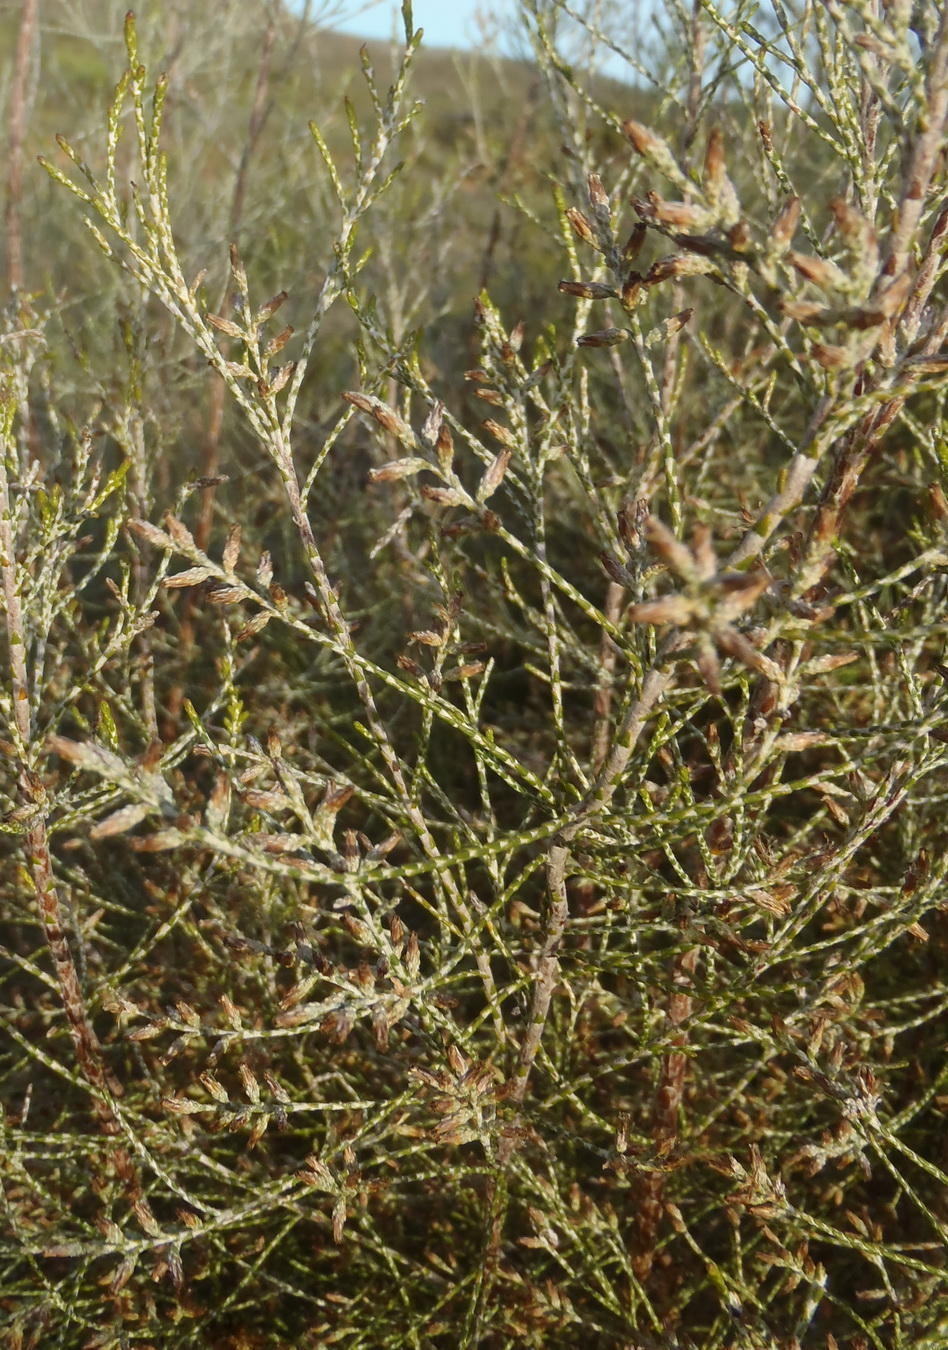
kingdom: Plantae
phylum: Tracheophyta
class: Magnoliopsida
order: Asterales
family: Asteraceae
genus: Dicerothamnus
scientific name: Dicerothamnus rhinocerotis
